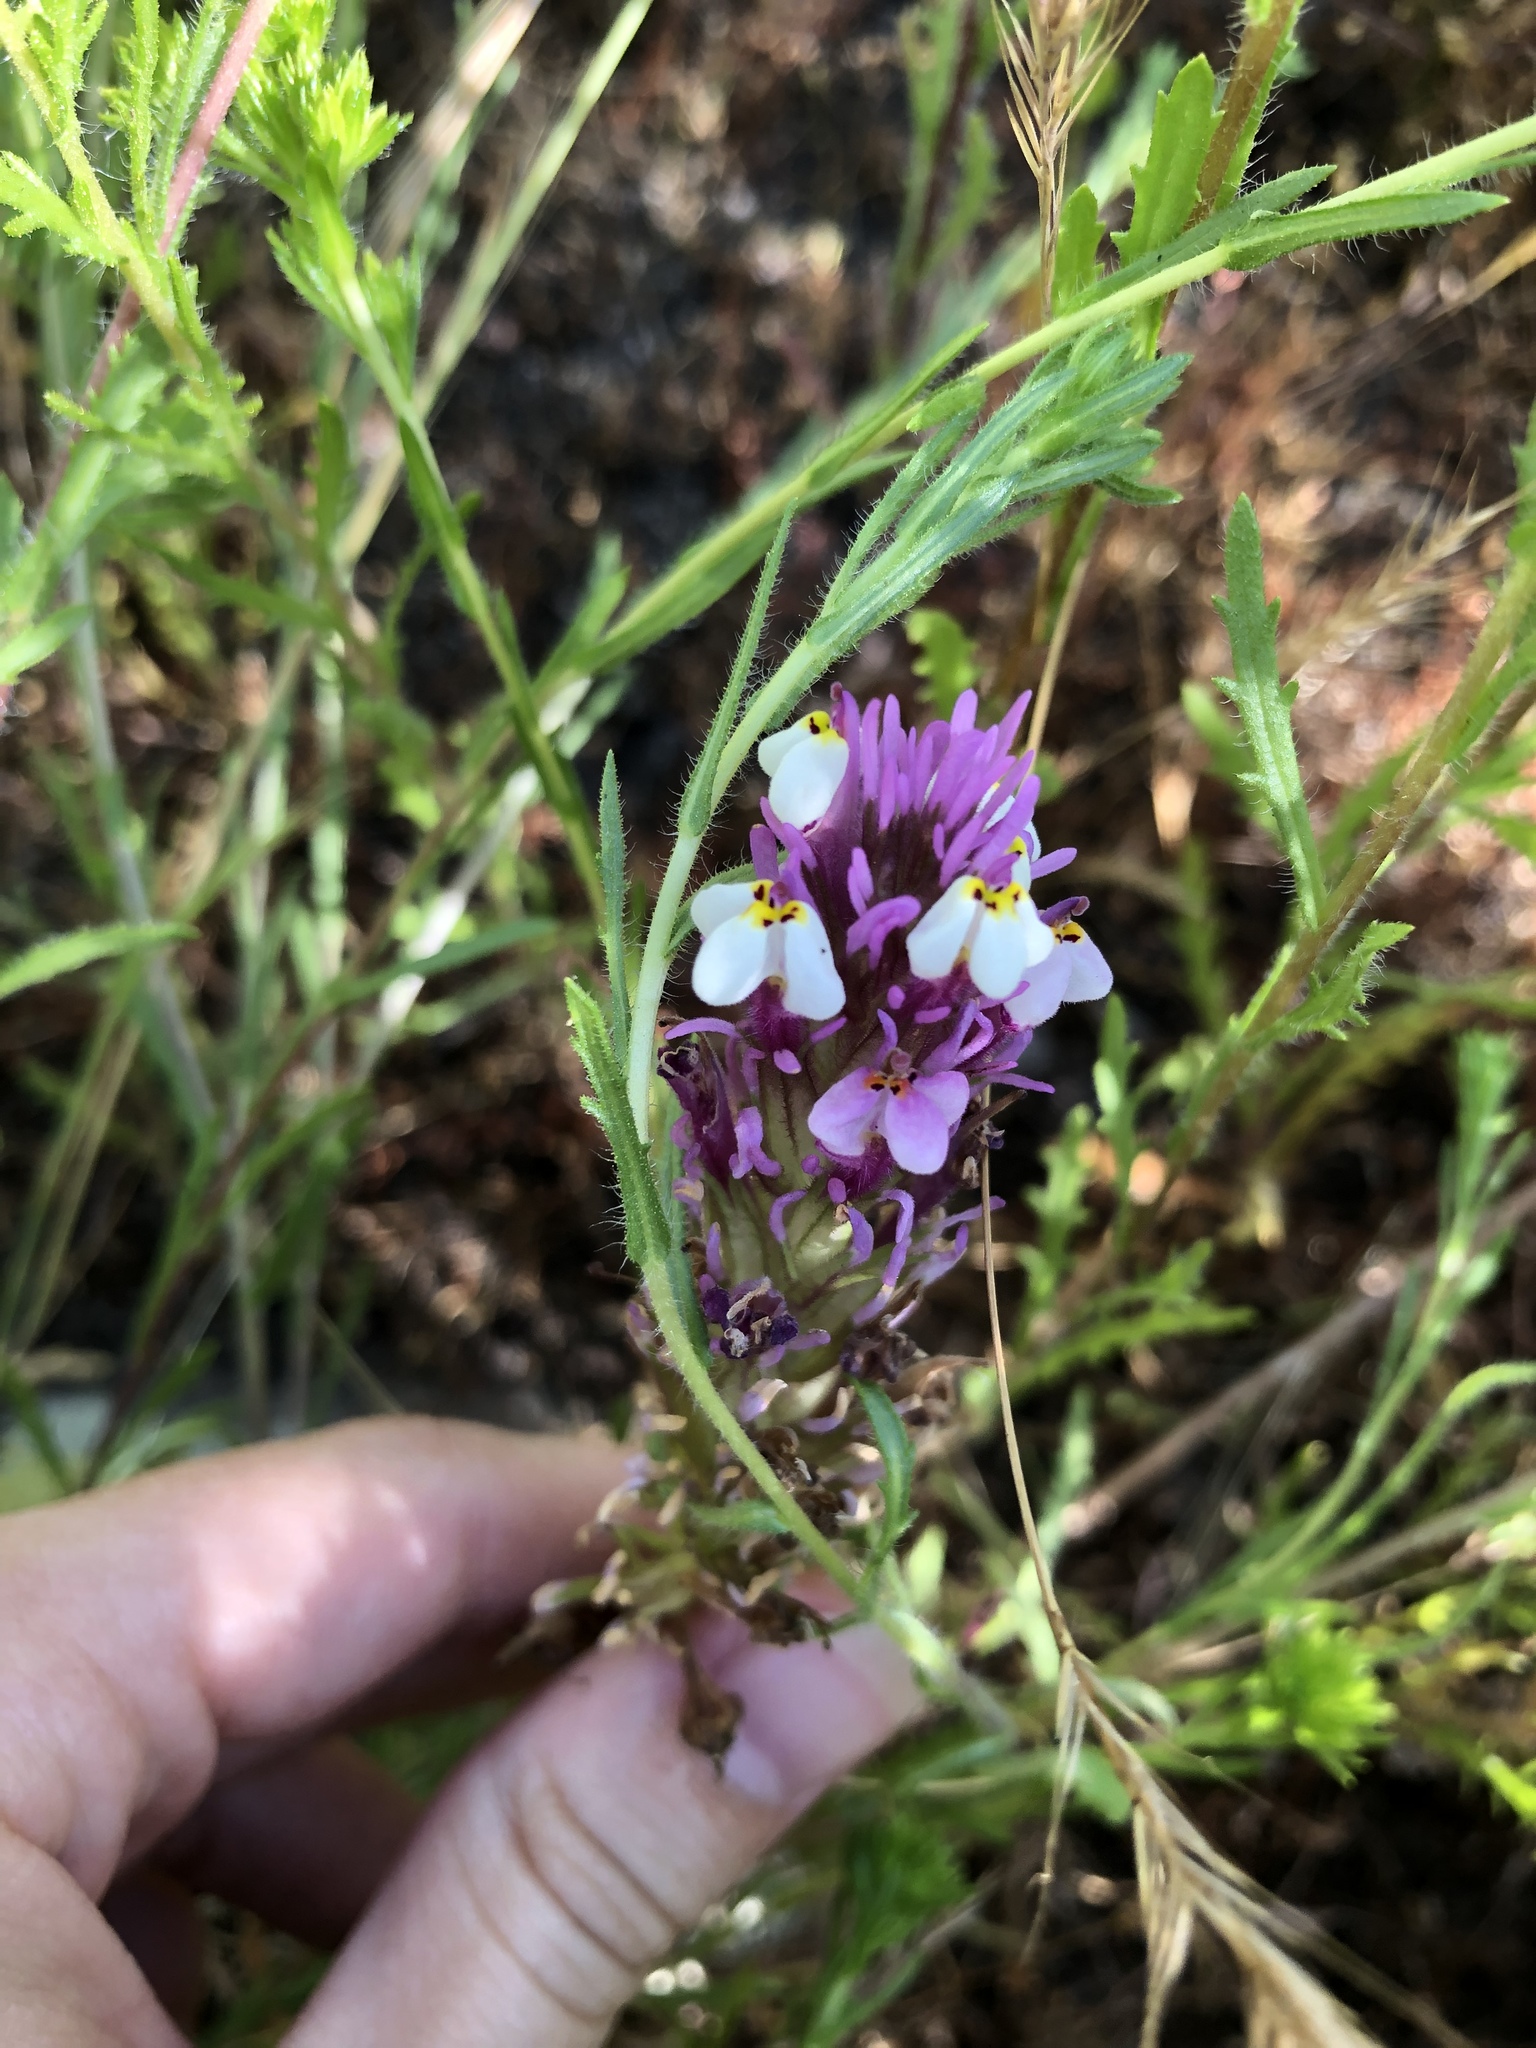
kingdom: Plantae
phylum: Tracheophyta
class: Magnoliopsida
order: Lamiales
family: Orobanchaceae
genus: Castilleja
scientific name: Castilleja densiflora
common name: Dense-flower indian paintbrush
